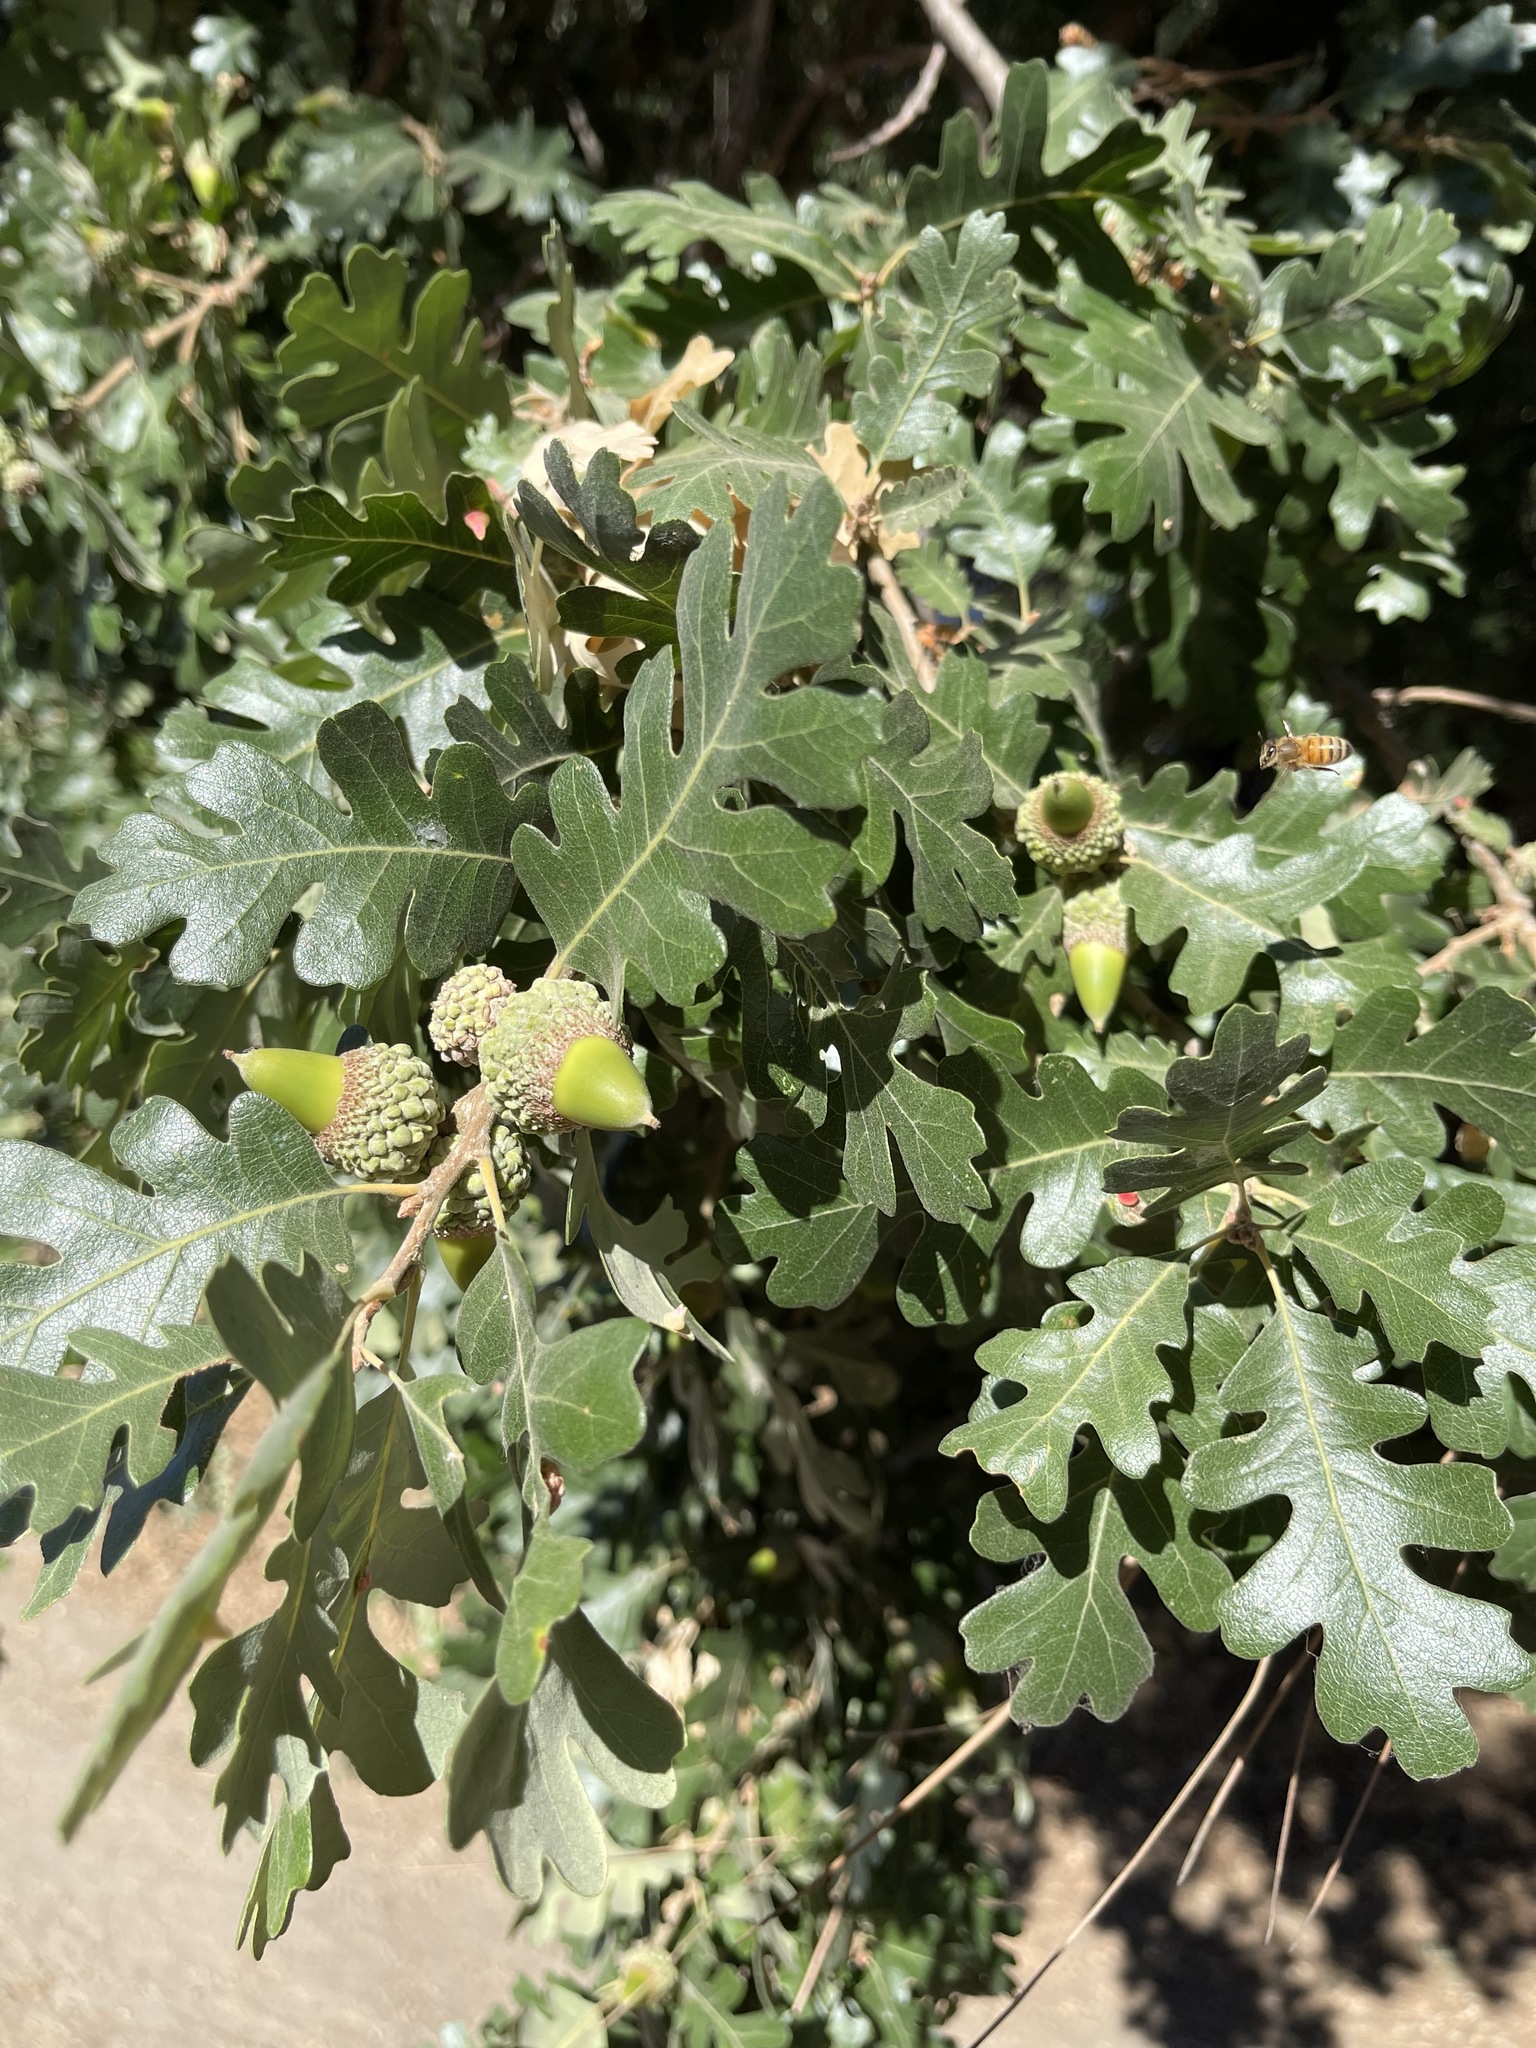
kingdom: Plantae
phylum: Tracheophyta
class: Magnoliopsida
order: Fagales
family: Fagaceae
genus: Quercus
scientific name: Quercus lobata
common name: Valley oak
